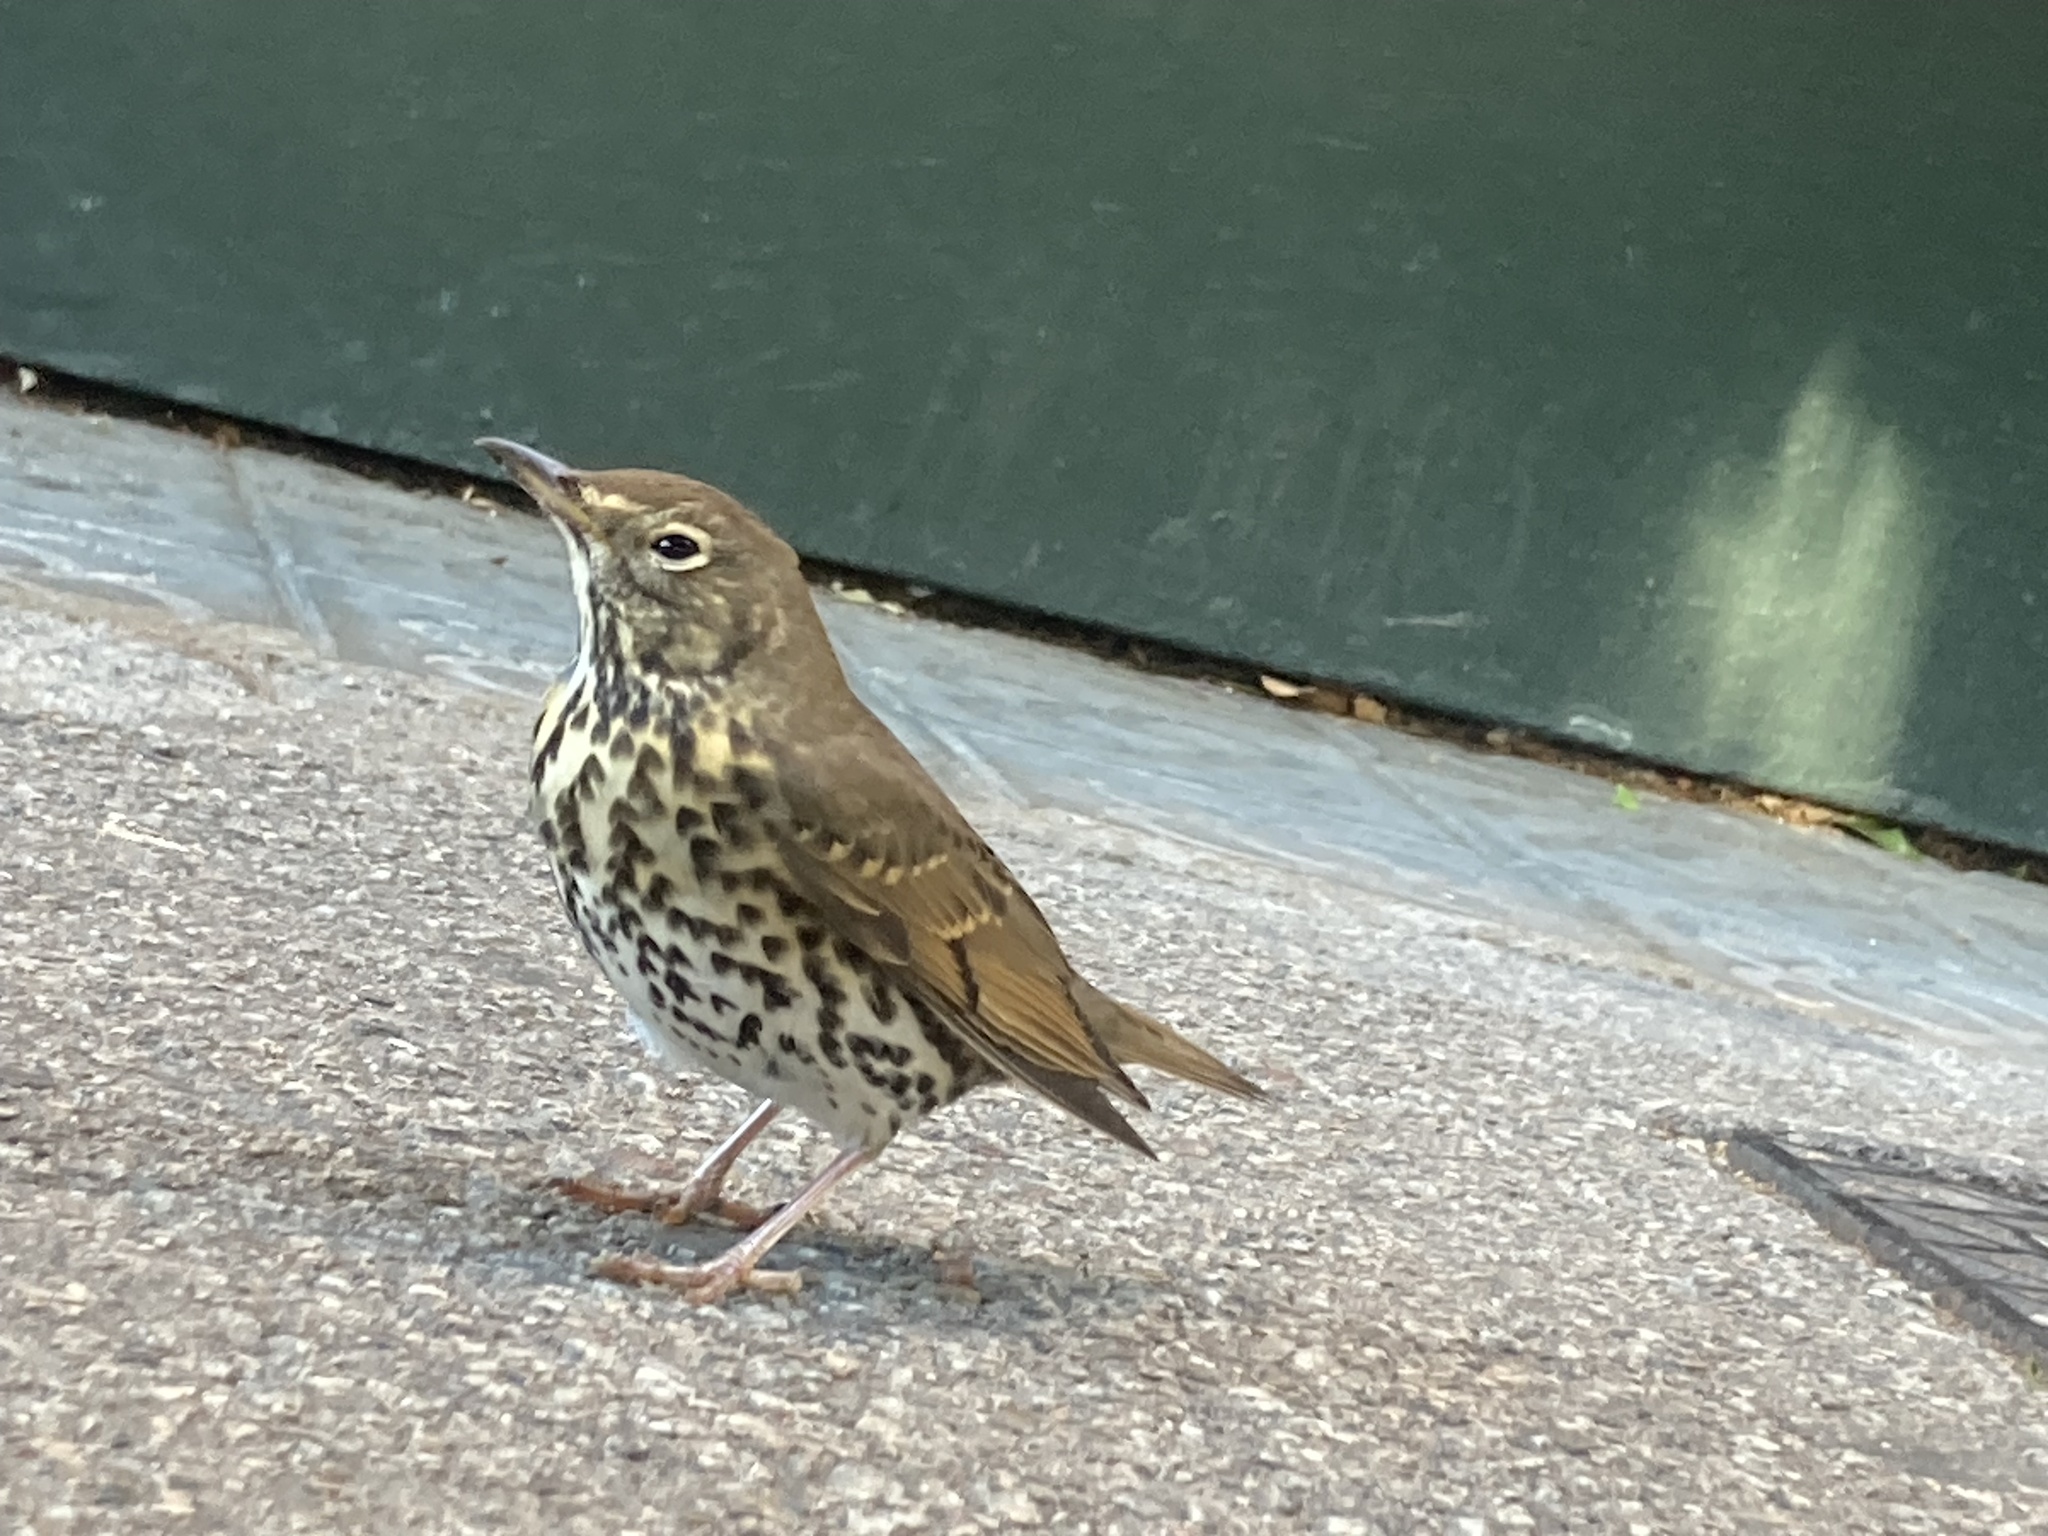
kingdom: Animalia
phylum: Chordata
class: Aves
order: Passeriformes
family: Turdidae
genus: Turdus
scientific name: Turdus philomelos
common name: Song thrush
